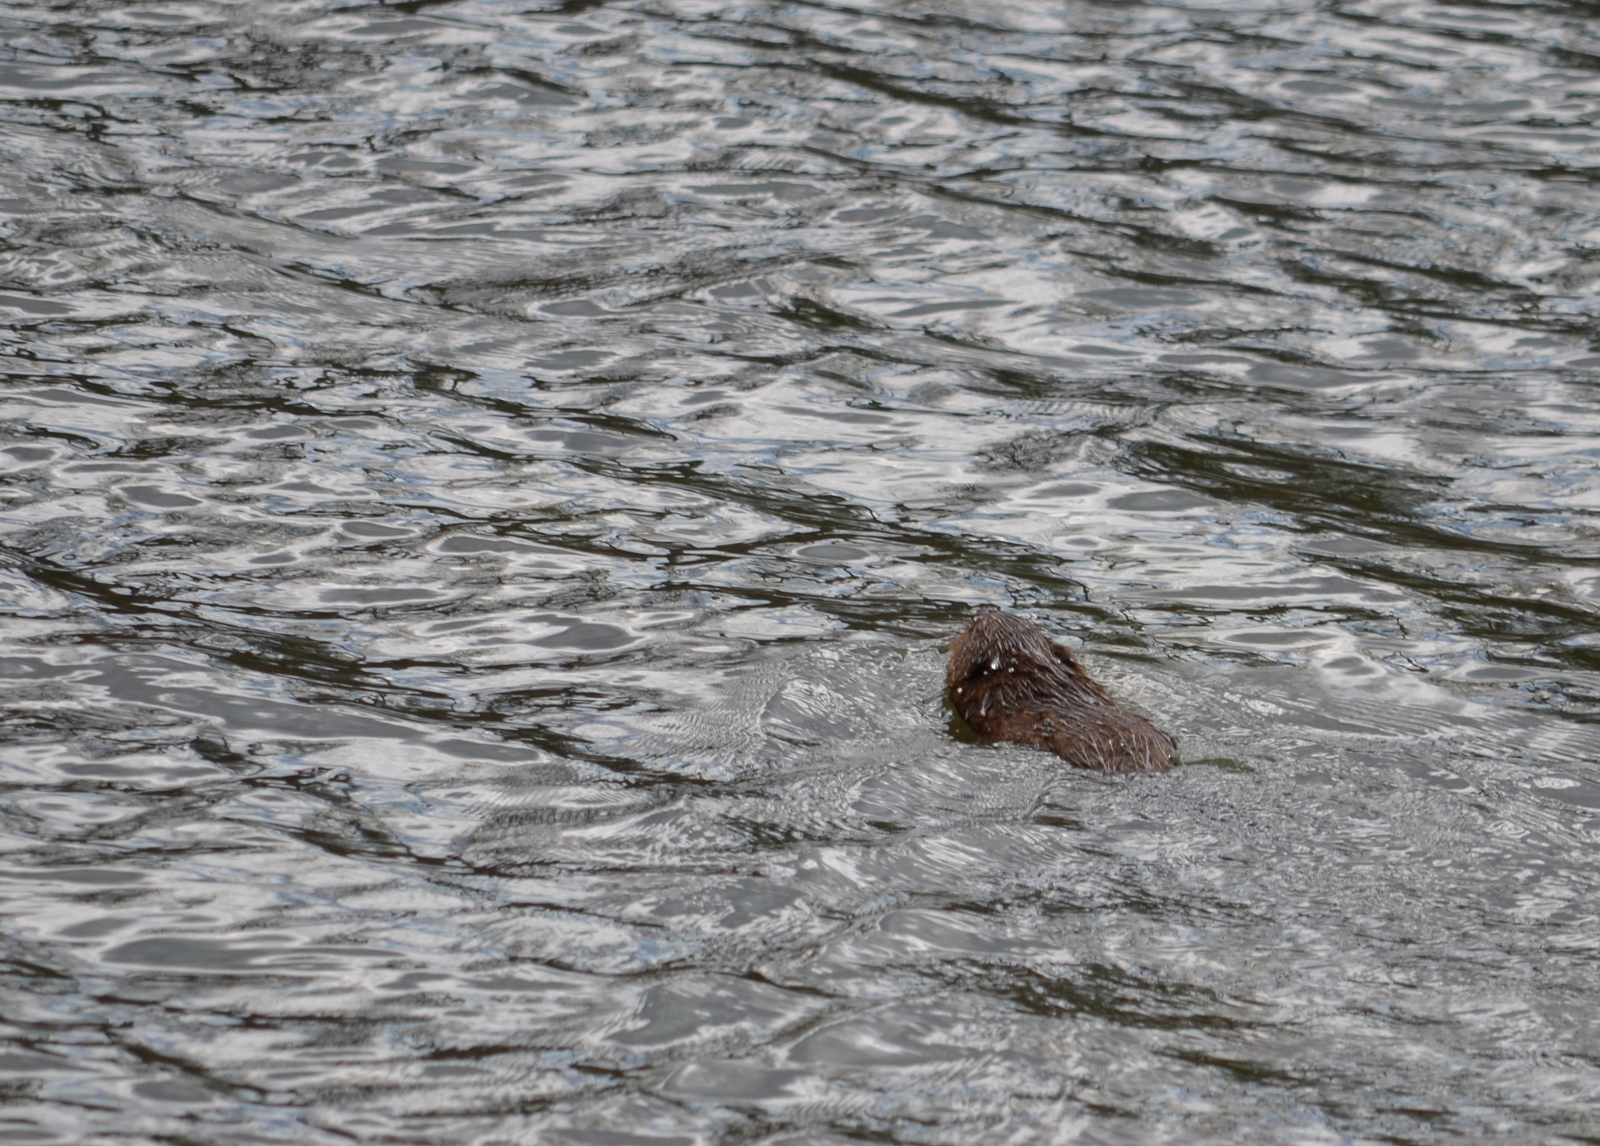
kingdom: Animalia
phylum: Chordata
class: Mammalia
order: Rodentia
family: Castoridae
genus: Castor
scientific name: Castor canadensis
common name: American beaver
